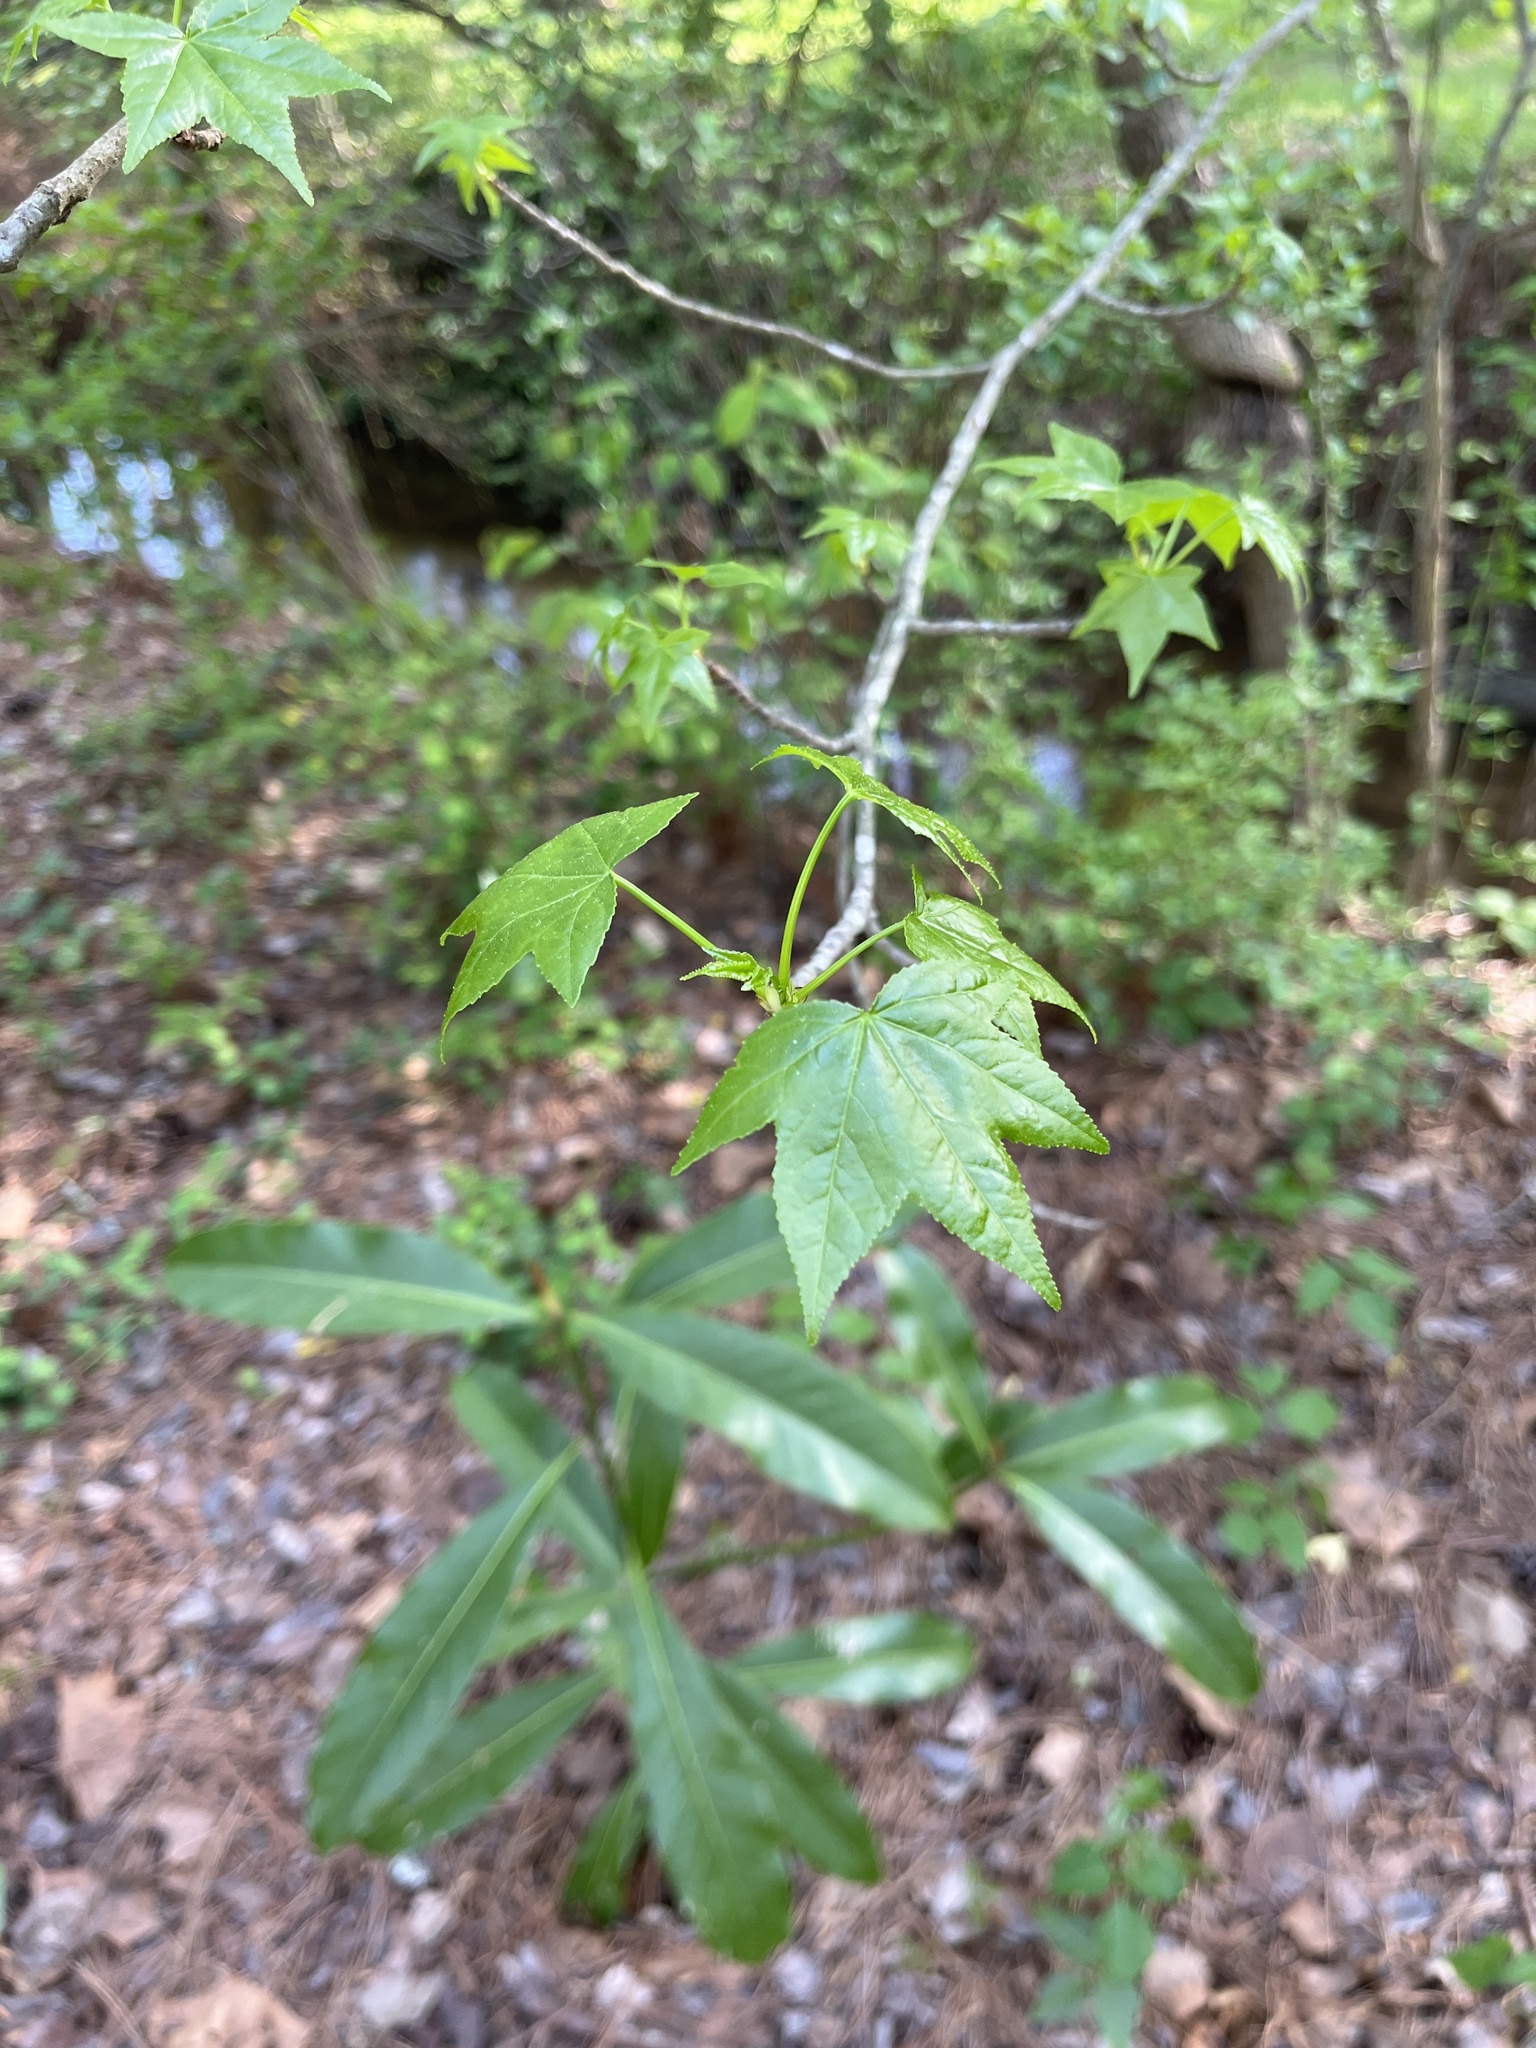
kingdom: Plantae
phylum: Tracheophyta
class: Magnoliopsida
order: Saxifragales
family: Altingiaceae
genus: Liquidambar
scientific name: Liquidambar styraciflua
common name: Sweet gum
